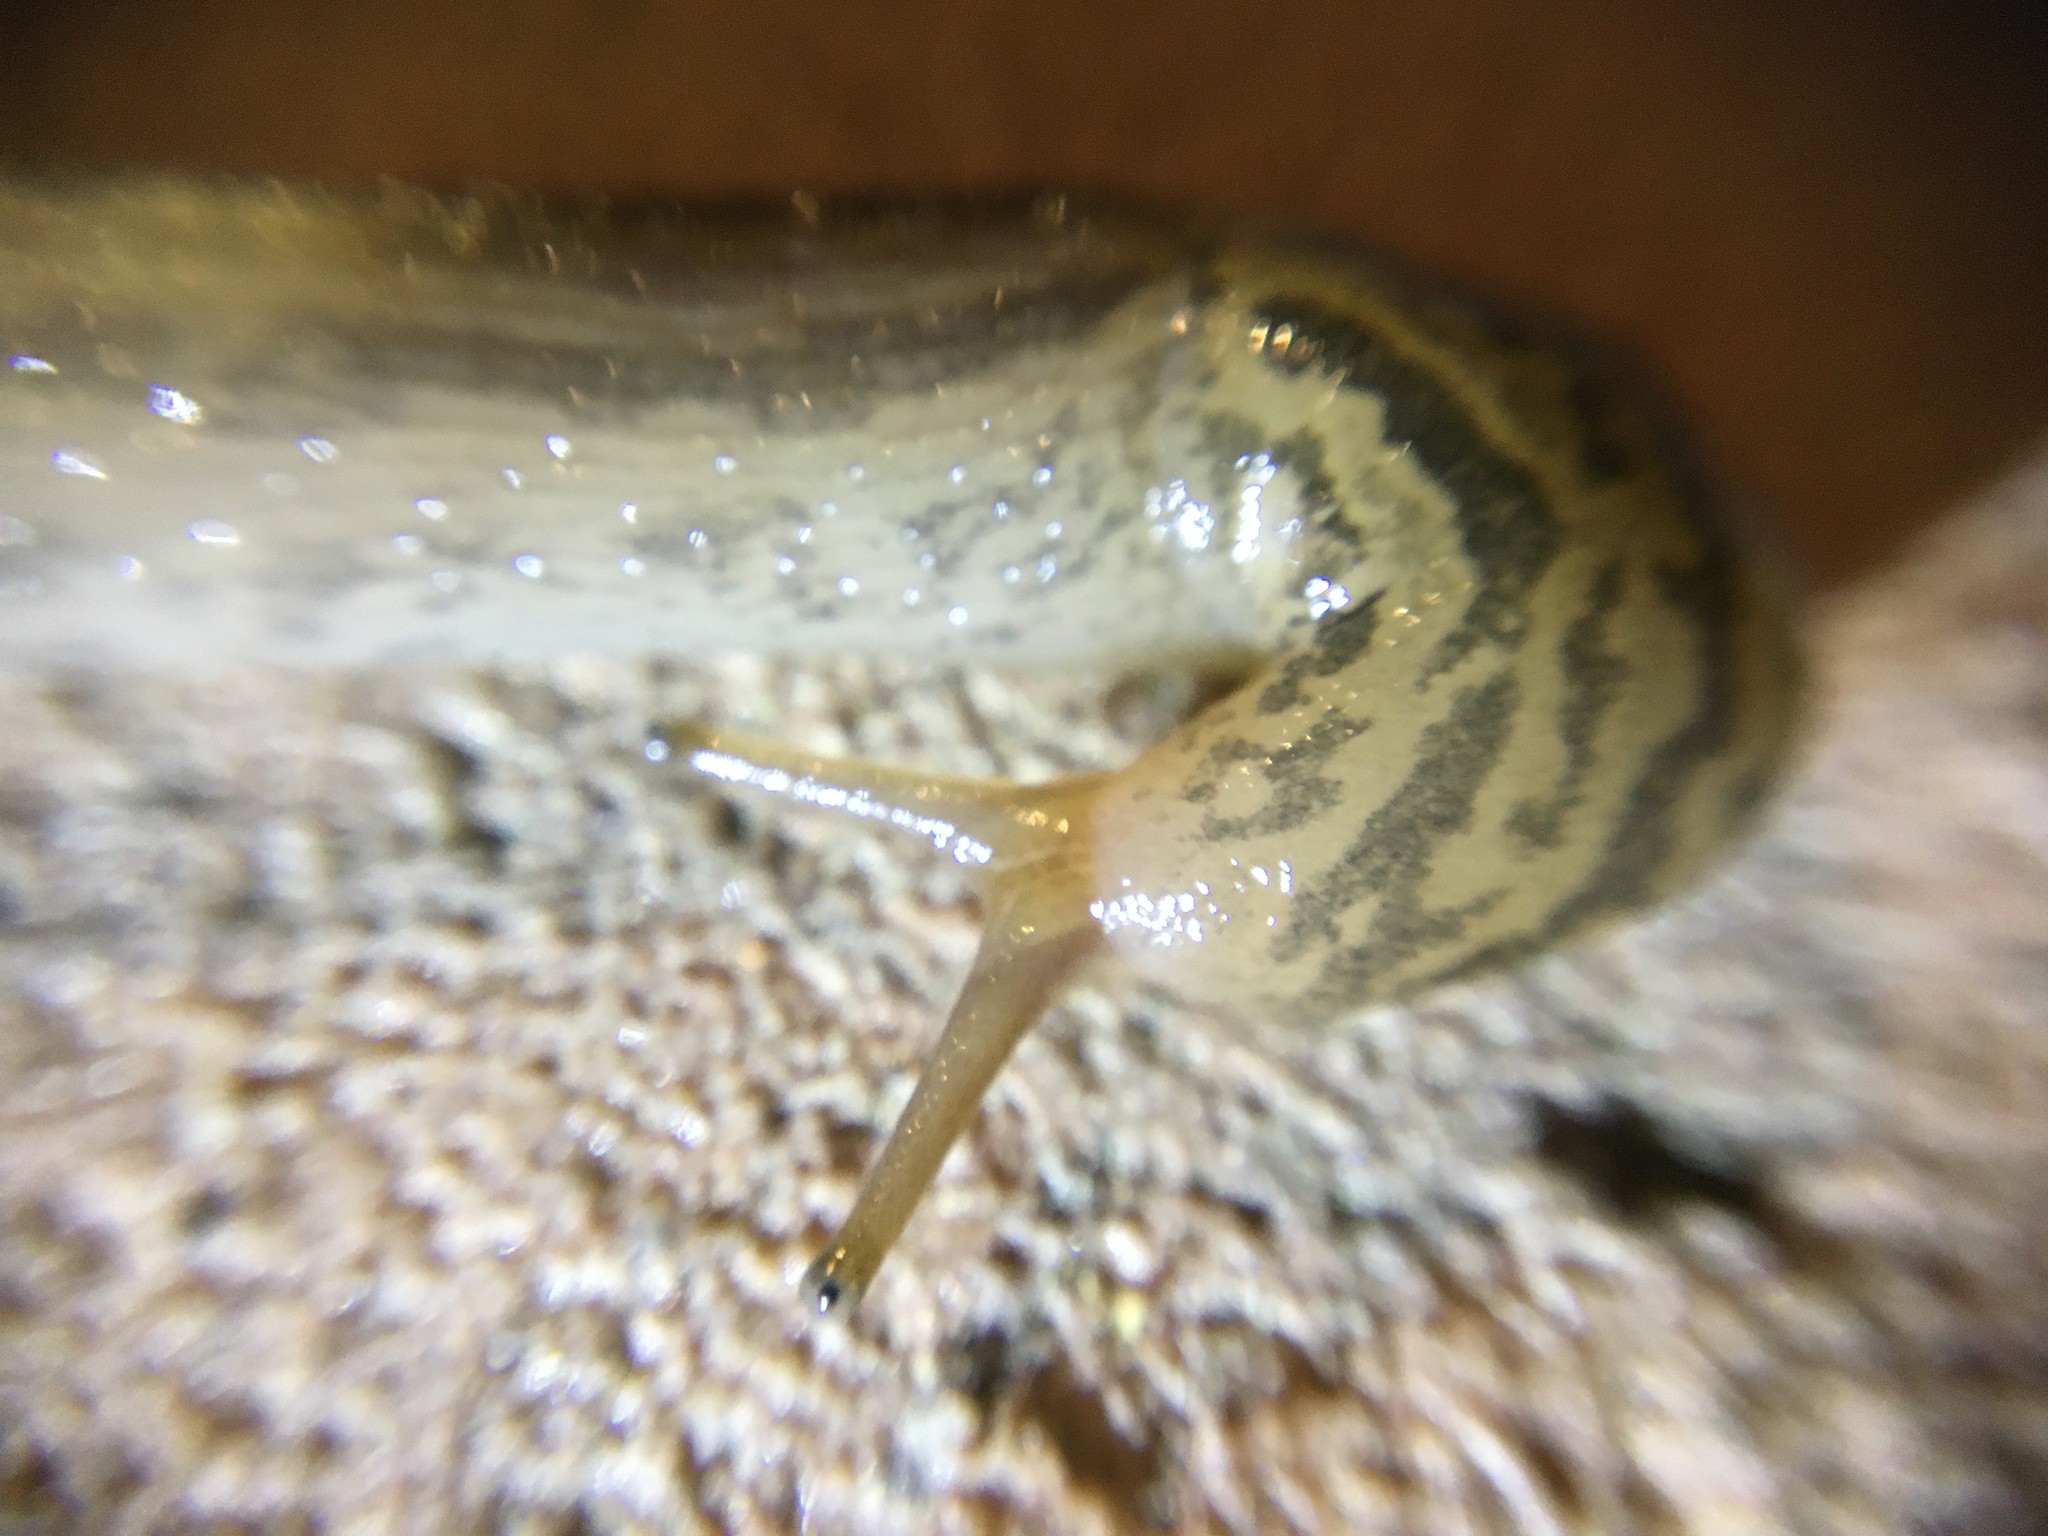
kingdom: Animalia
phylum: Mollusca
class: Gastropoda
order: Stylommatophora
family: Limacidae
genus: Ambigolimax
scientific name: Ambigolimax
